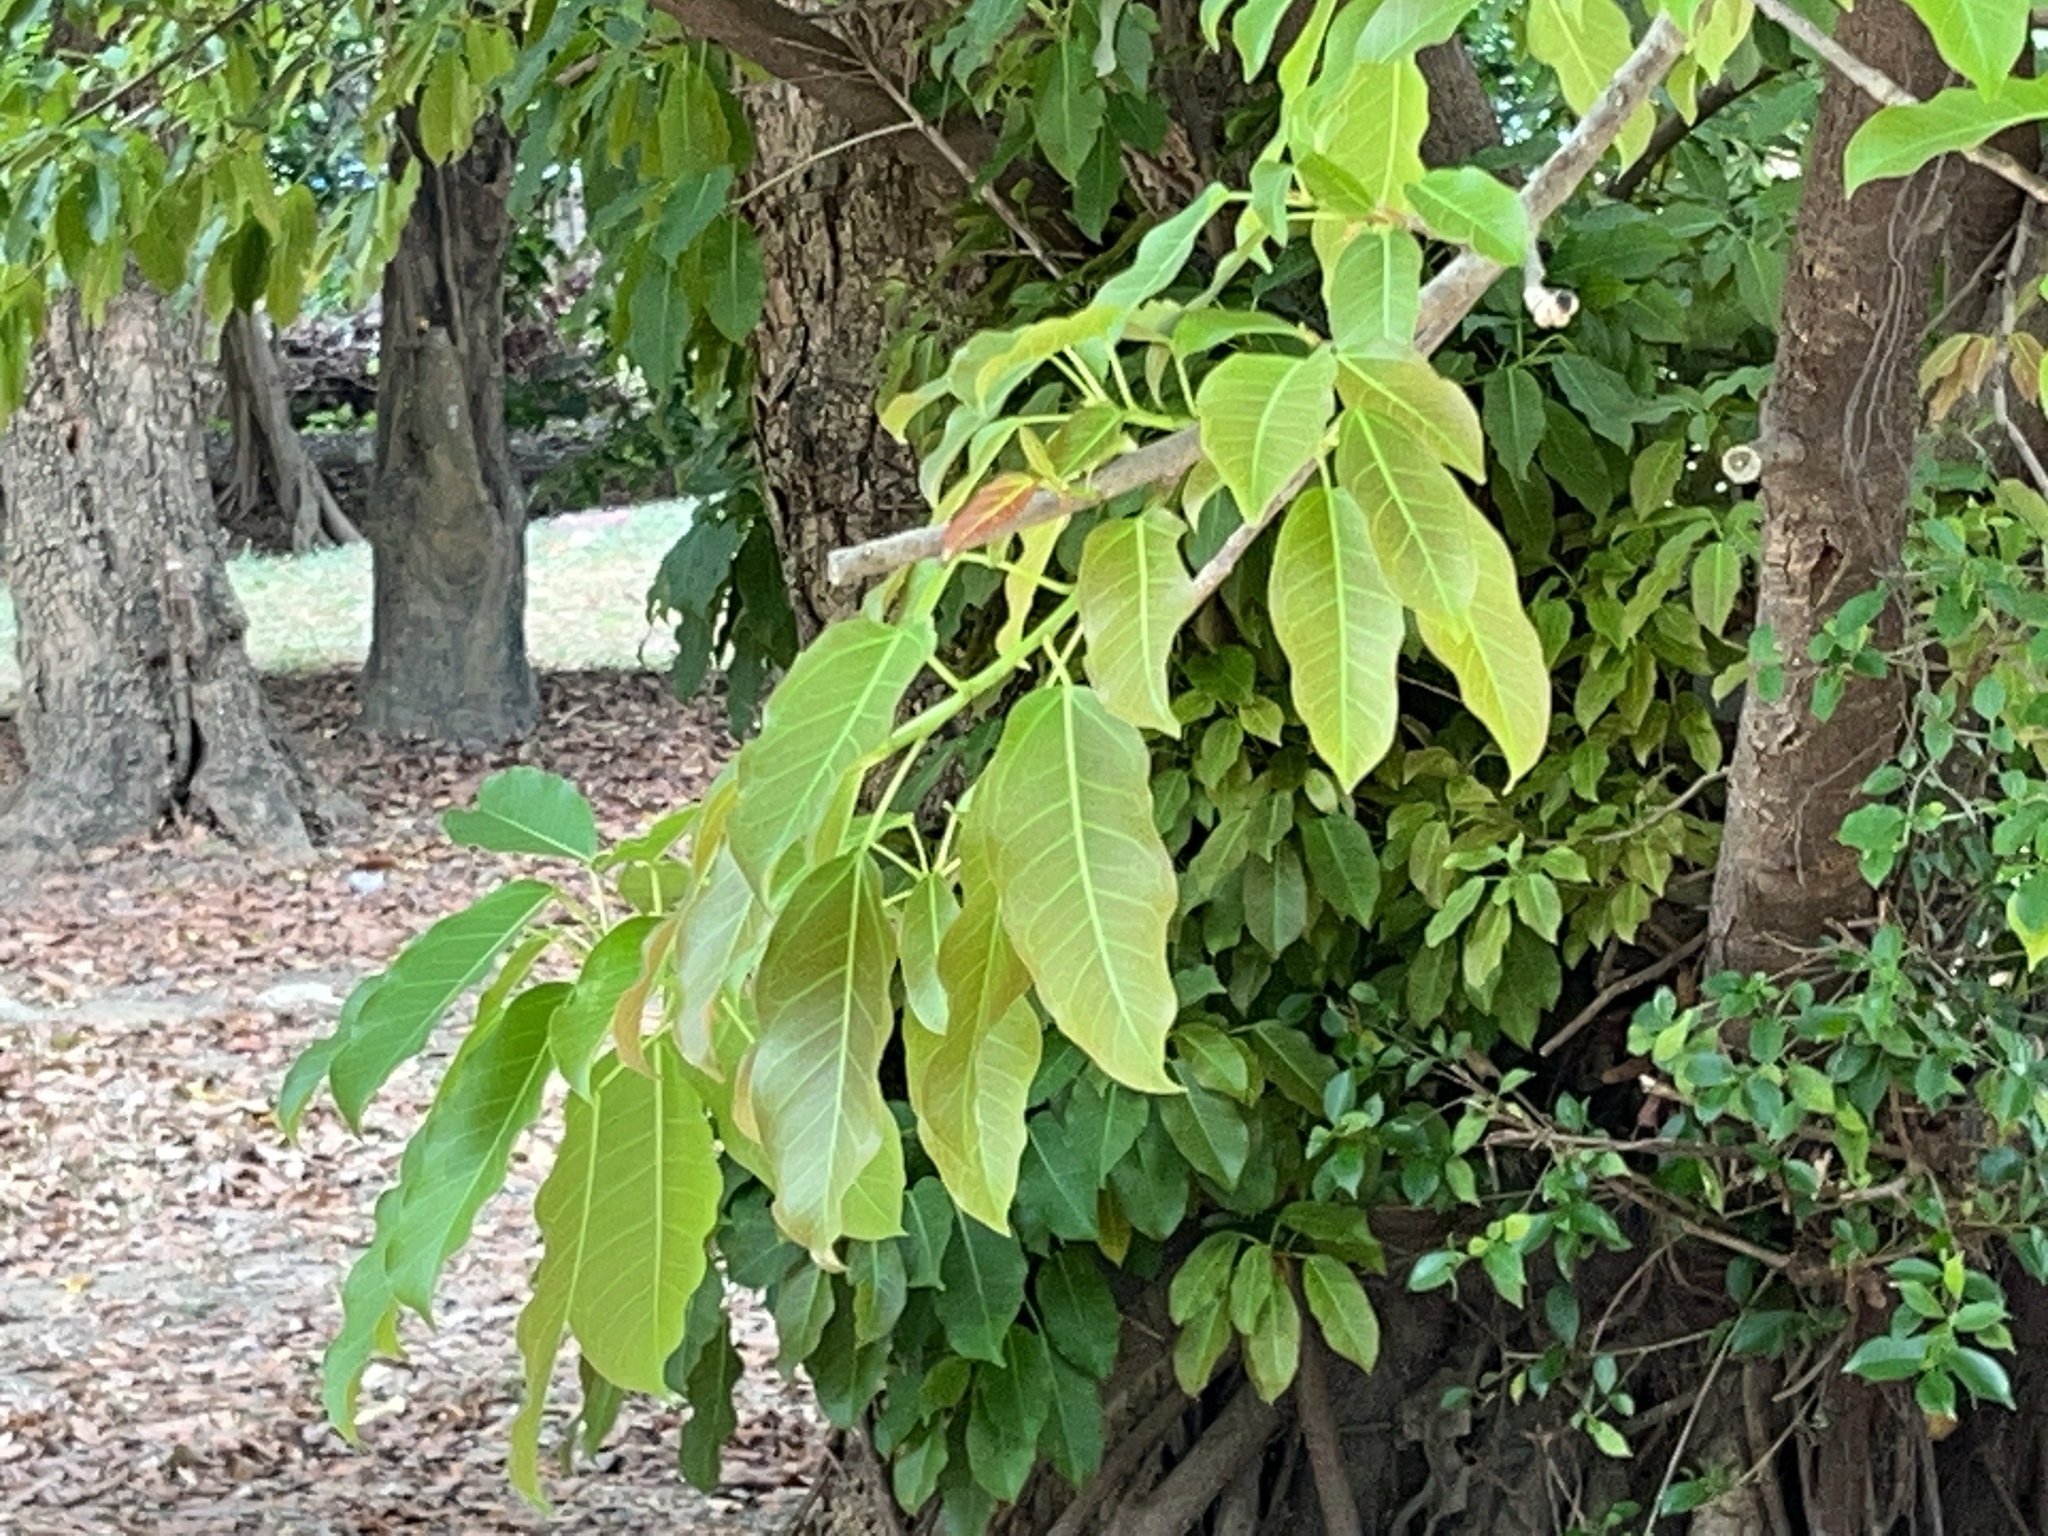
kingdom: Plantae
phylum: Tracheophyta
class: Magnoliopsida
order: Rosales
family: Moraceae
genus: Ficus
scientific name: Ficus subpisocarpa
